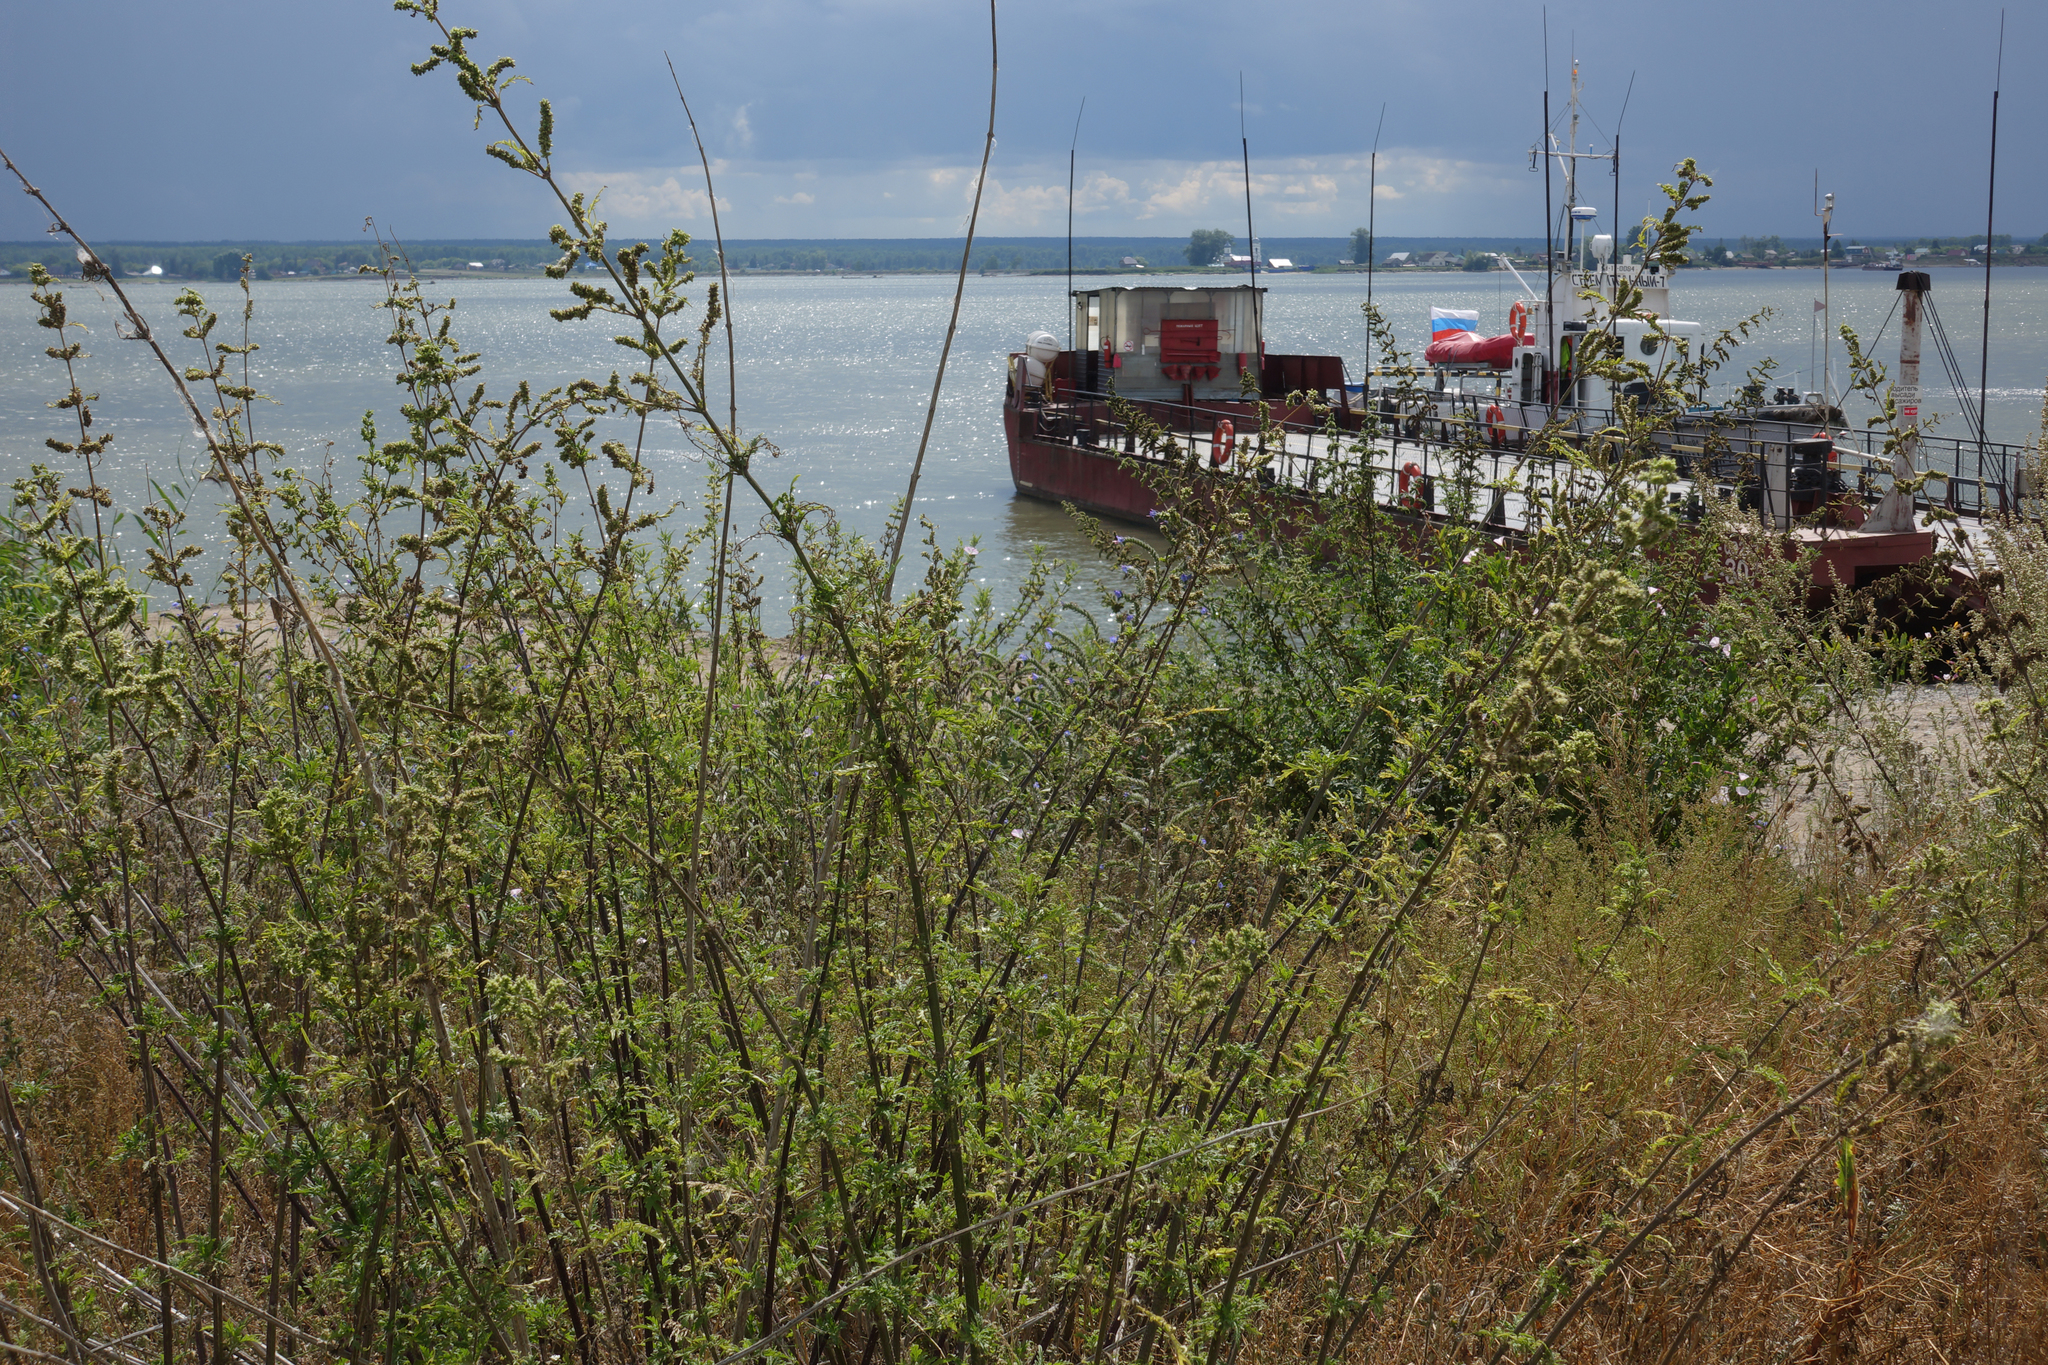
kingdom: Plantae
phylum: Tracheophyta
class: Magnoliopsida
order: Rosales
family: Urticaceae
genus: Urtica
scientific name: Urtica cannabina
